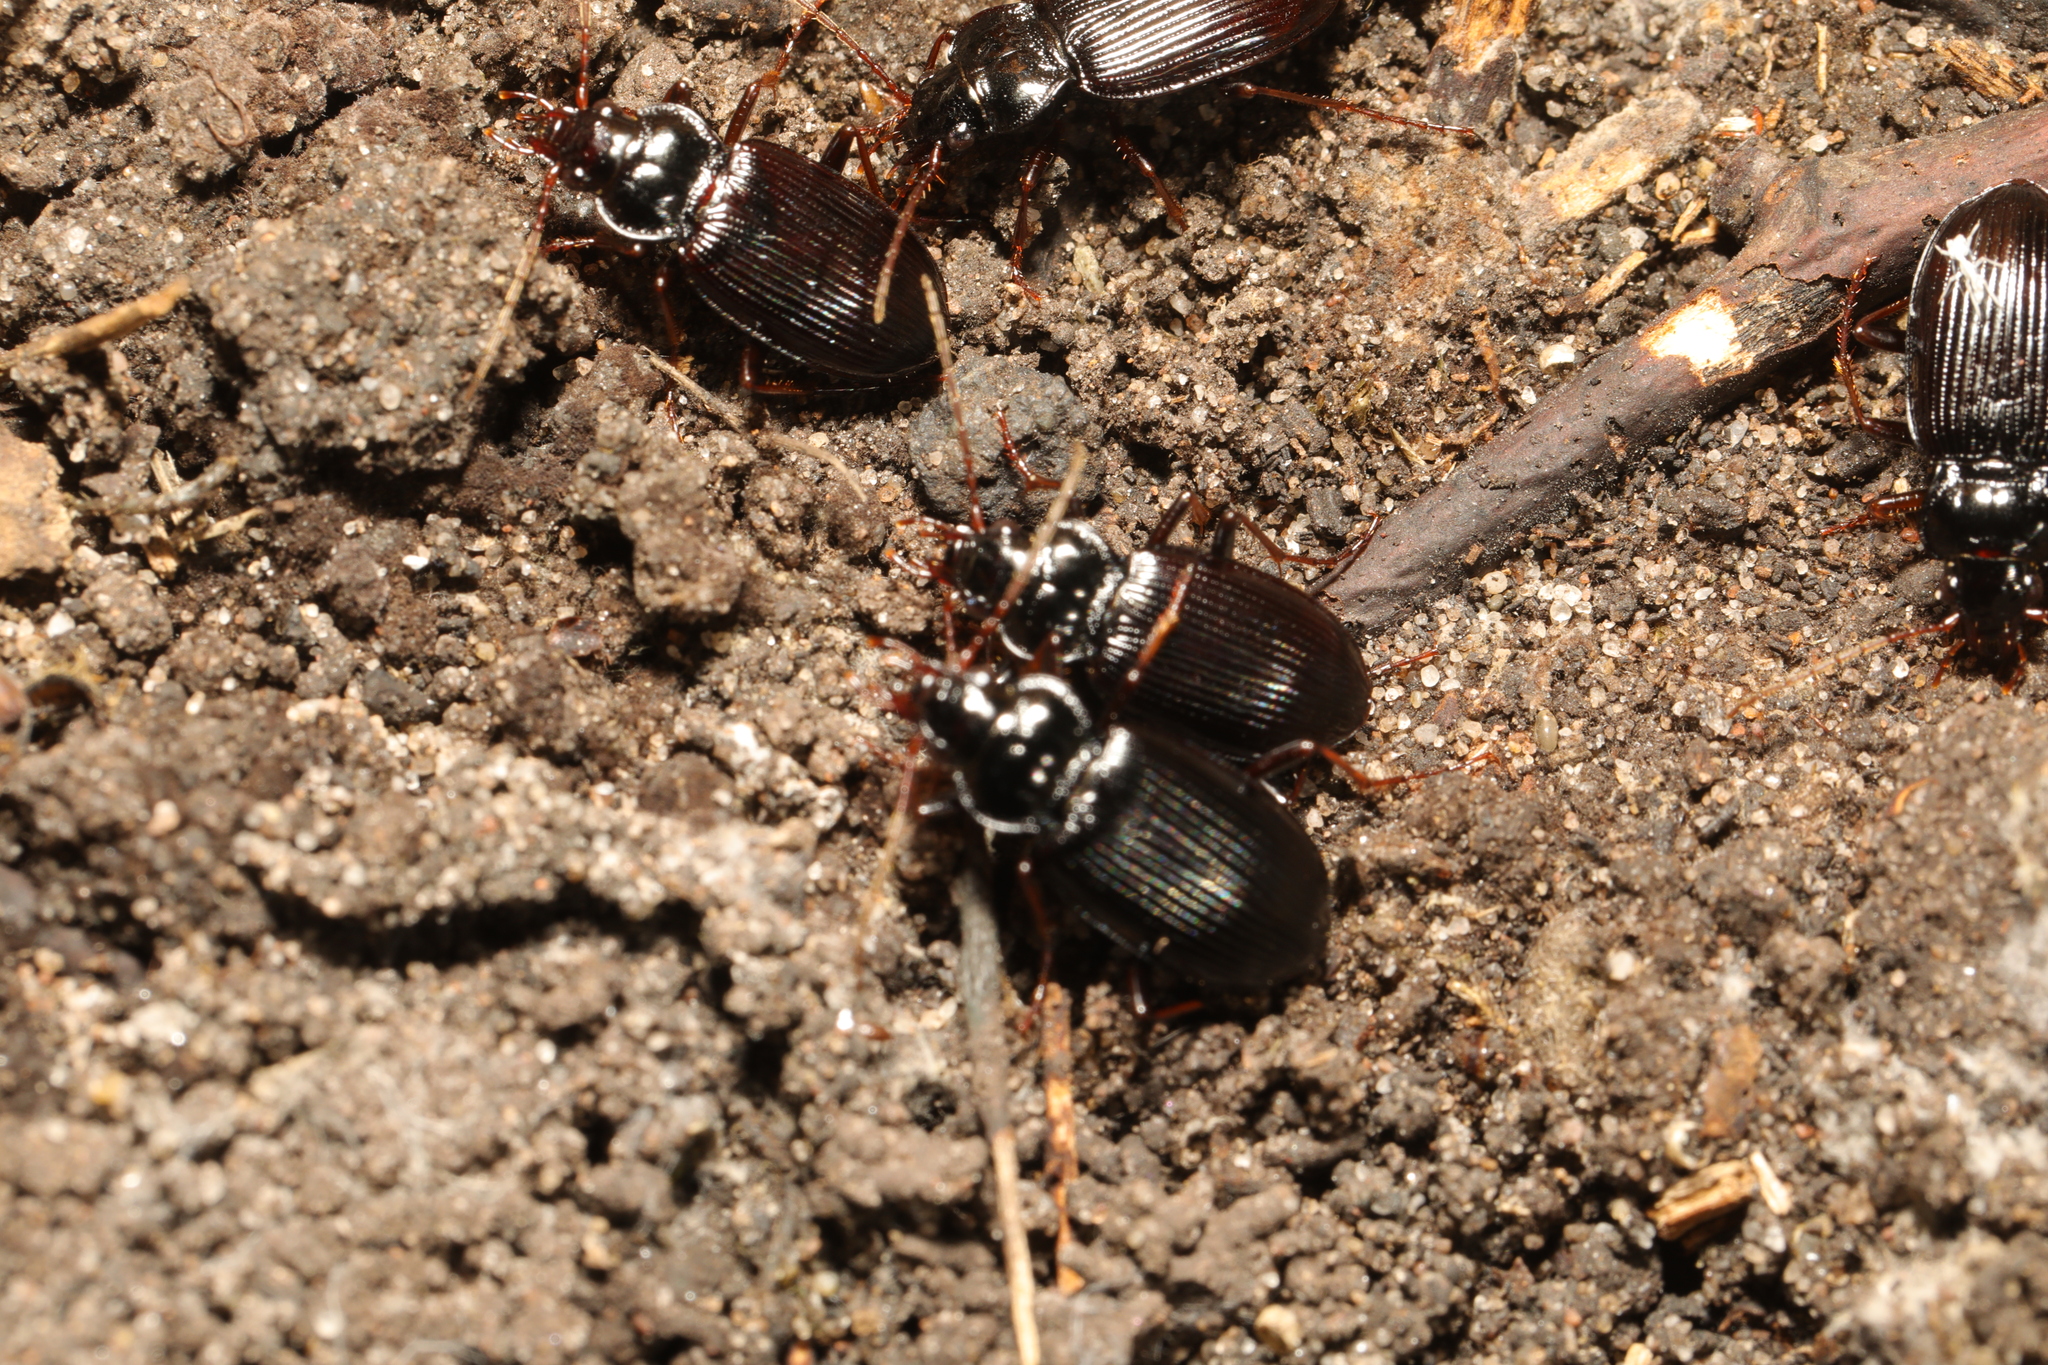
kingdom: Animalia
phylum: Arthropoda
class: Insecta
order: Coleoptera
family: Carabidae
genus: Nebria
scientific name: Nebria brevicollis
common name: Short-necked gazelle beetle
